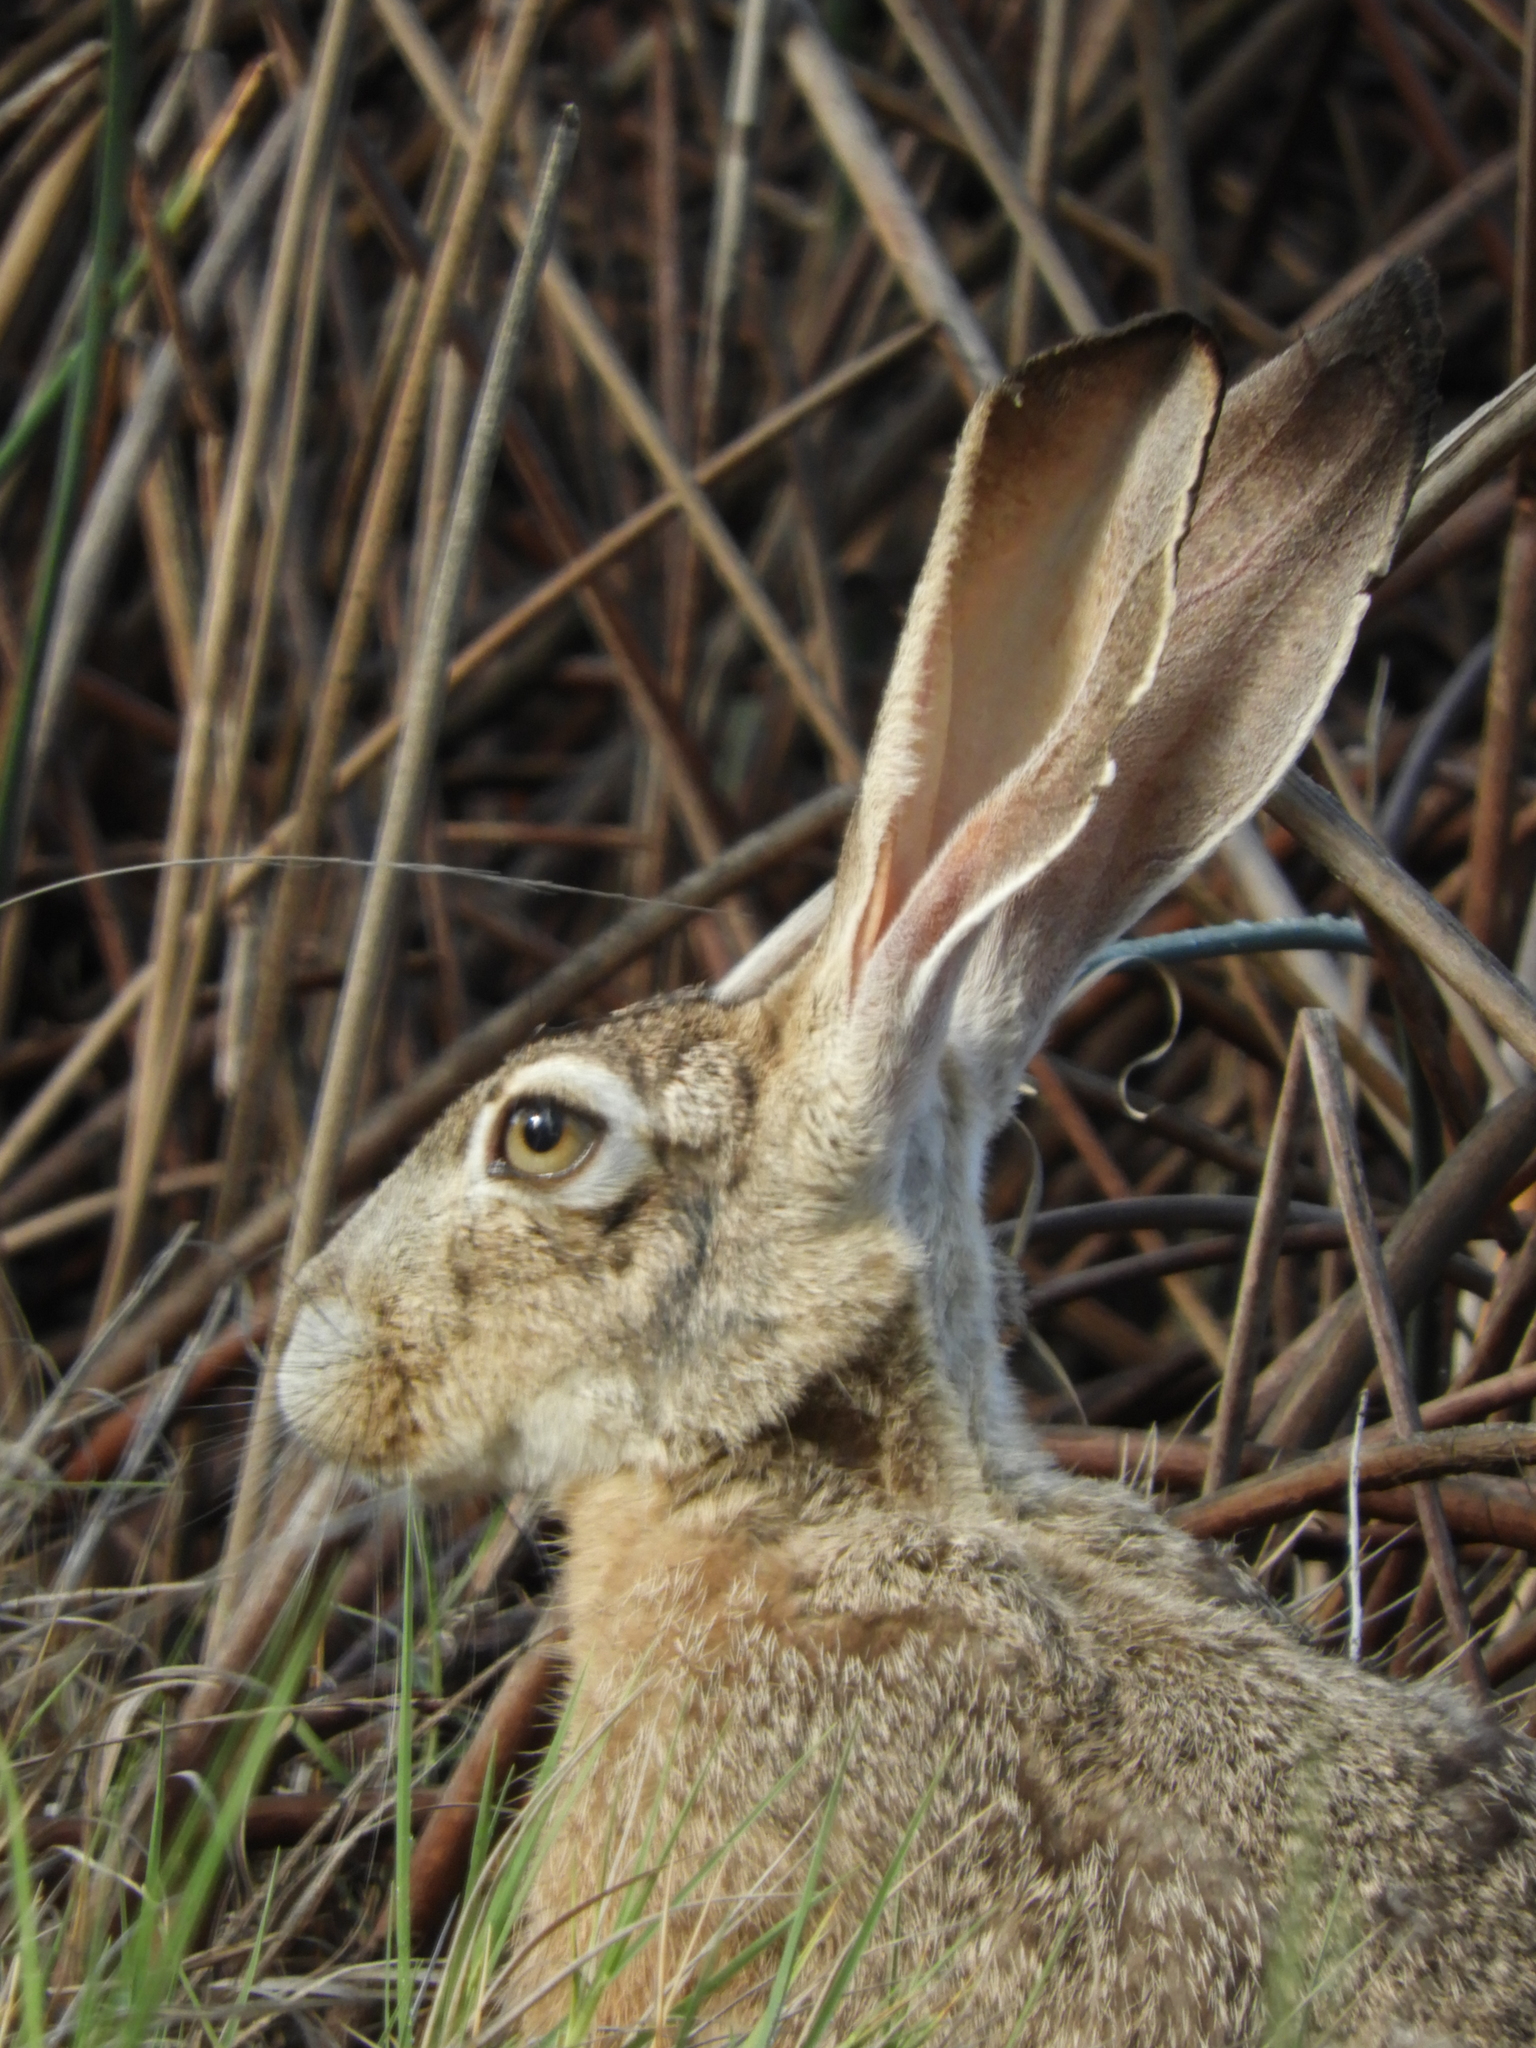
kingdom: Animalia
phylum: Chordata
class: Mammalia
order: Lagomorpha
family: Leporidae
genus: Lepus
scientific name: Lepus californicus
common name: Black-tailed jackrabbit
